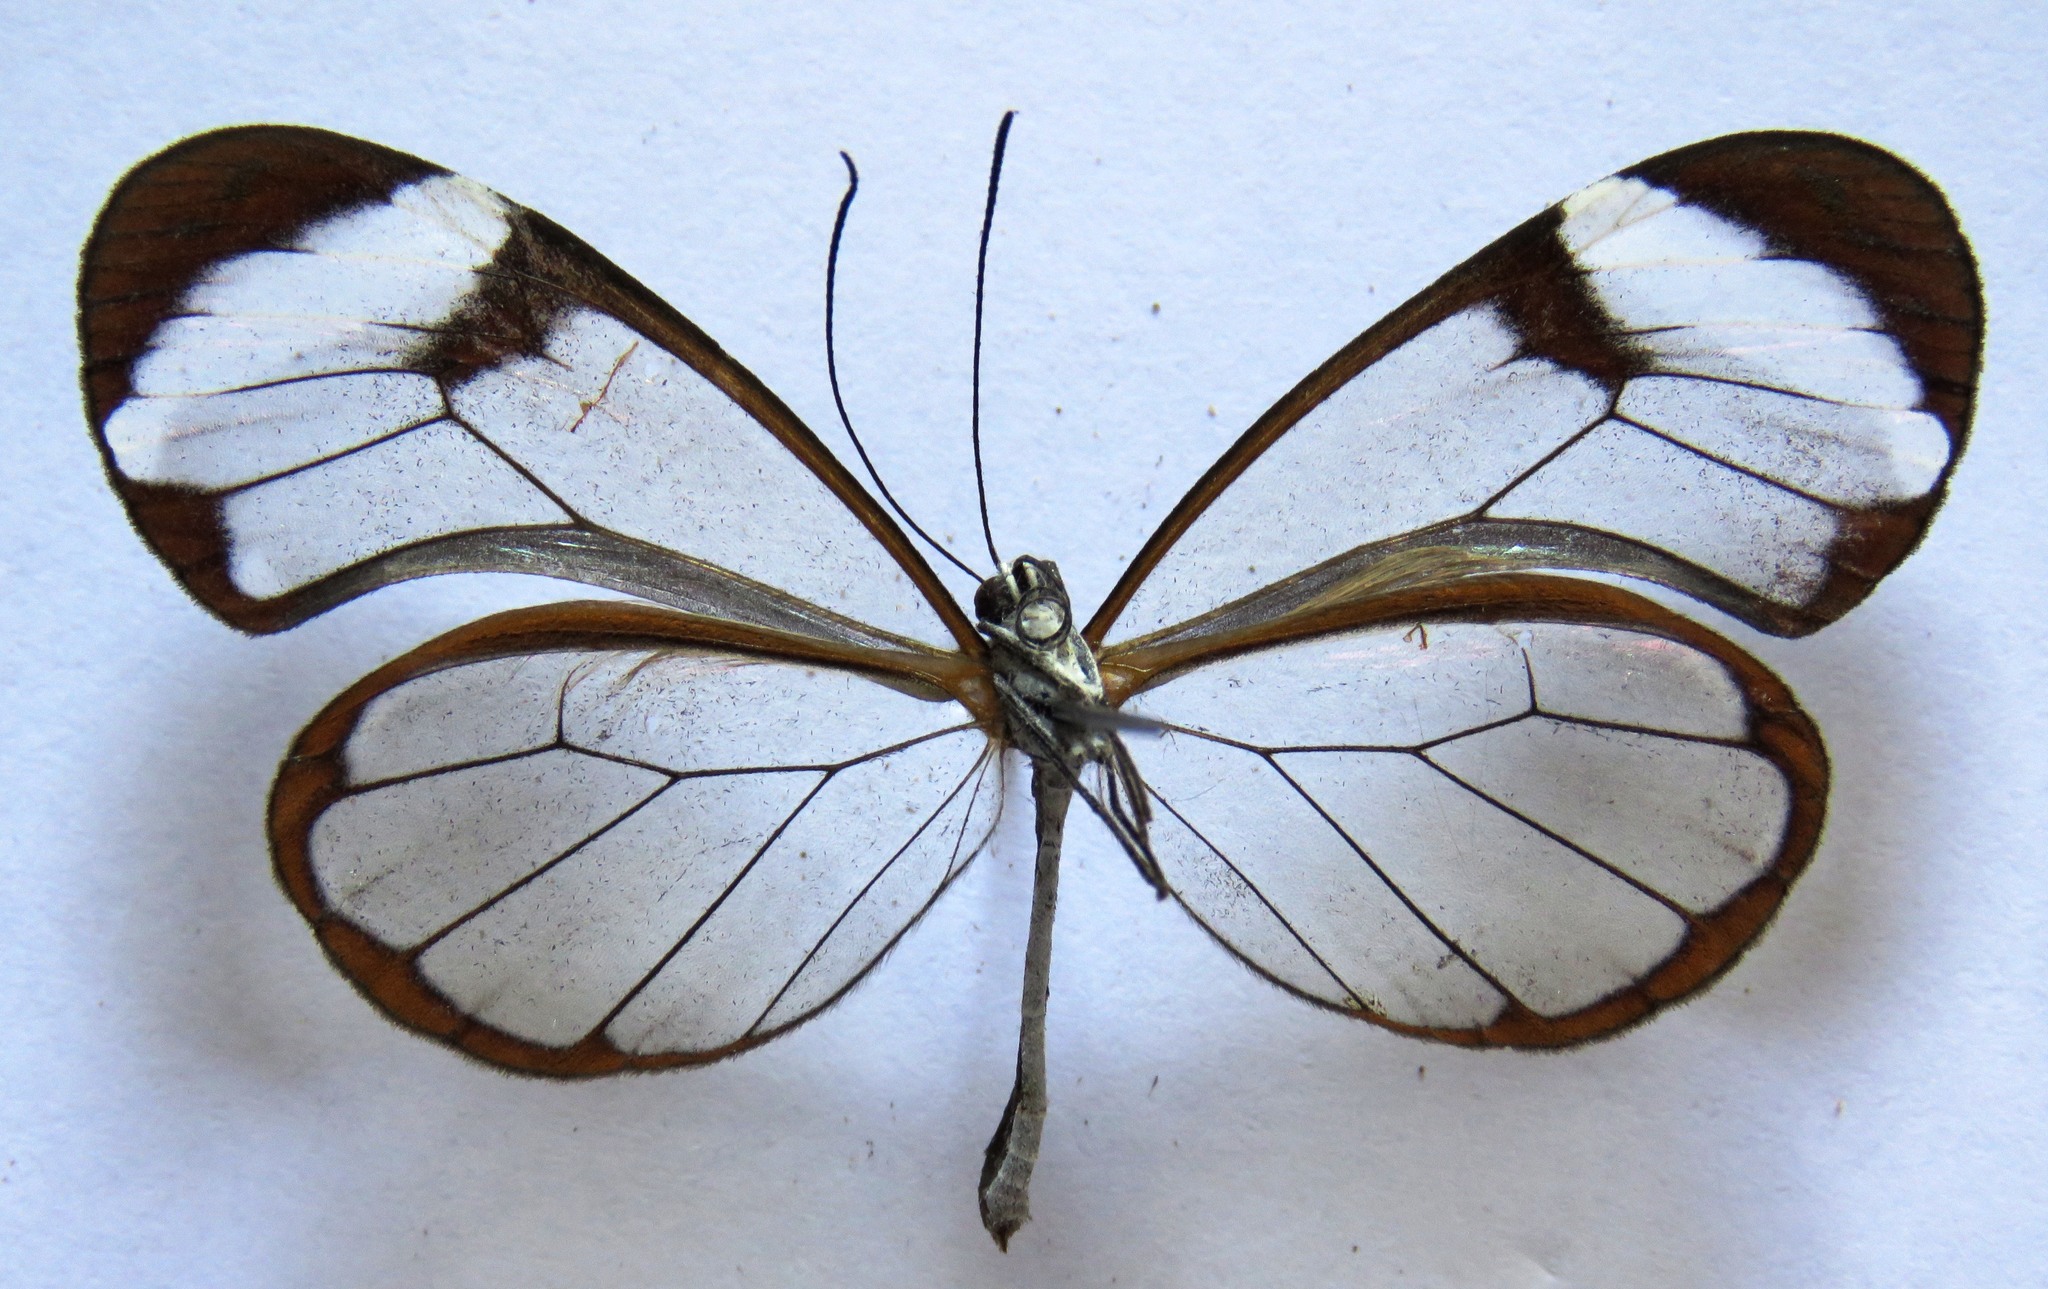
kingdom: Animalia
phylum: Arthropoda
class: Insecta
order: Lepidoptera
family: Nymphalidae
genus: Greta
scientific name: Greta morgane
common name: Thick-tipped greta
